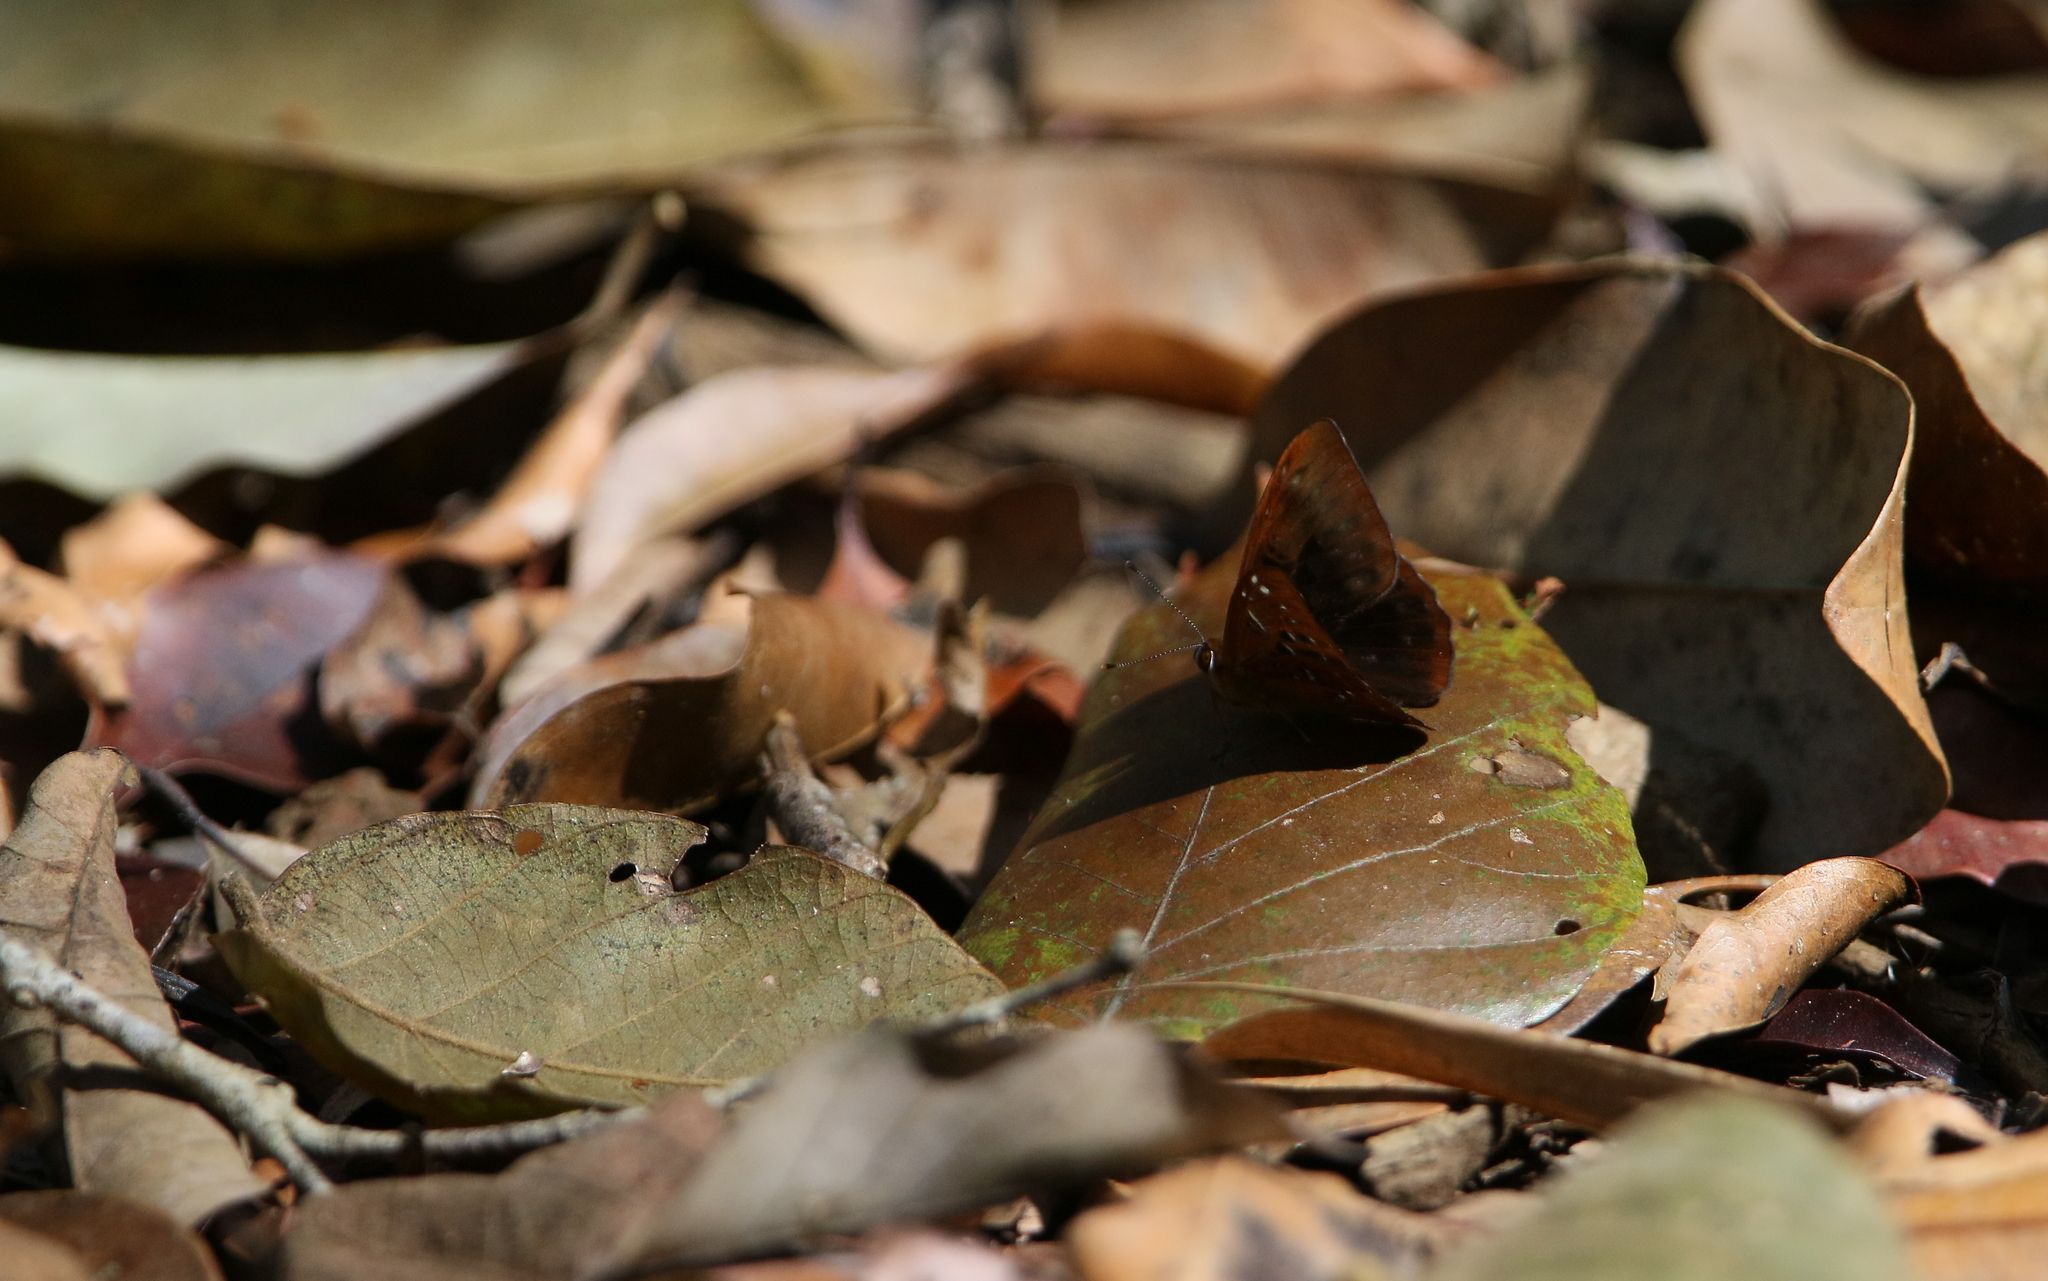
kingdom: Animalia
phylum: Arthropoda
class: Insecta
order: Lepidoptera
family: Erebidae
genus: Dysschema
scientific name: Dysschema
